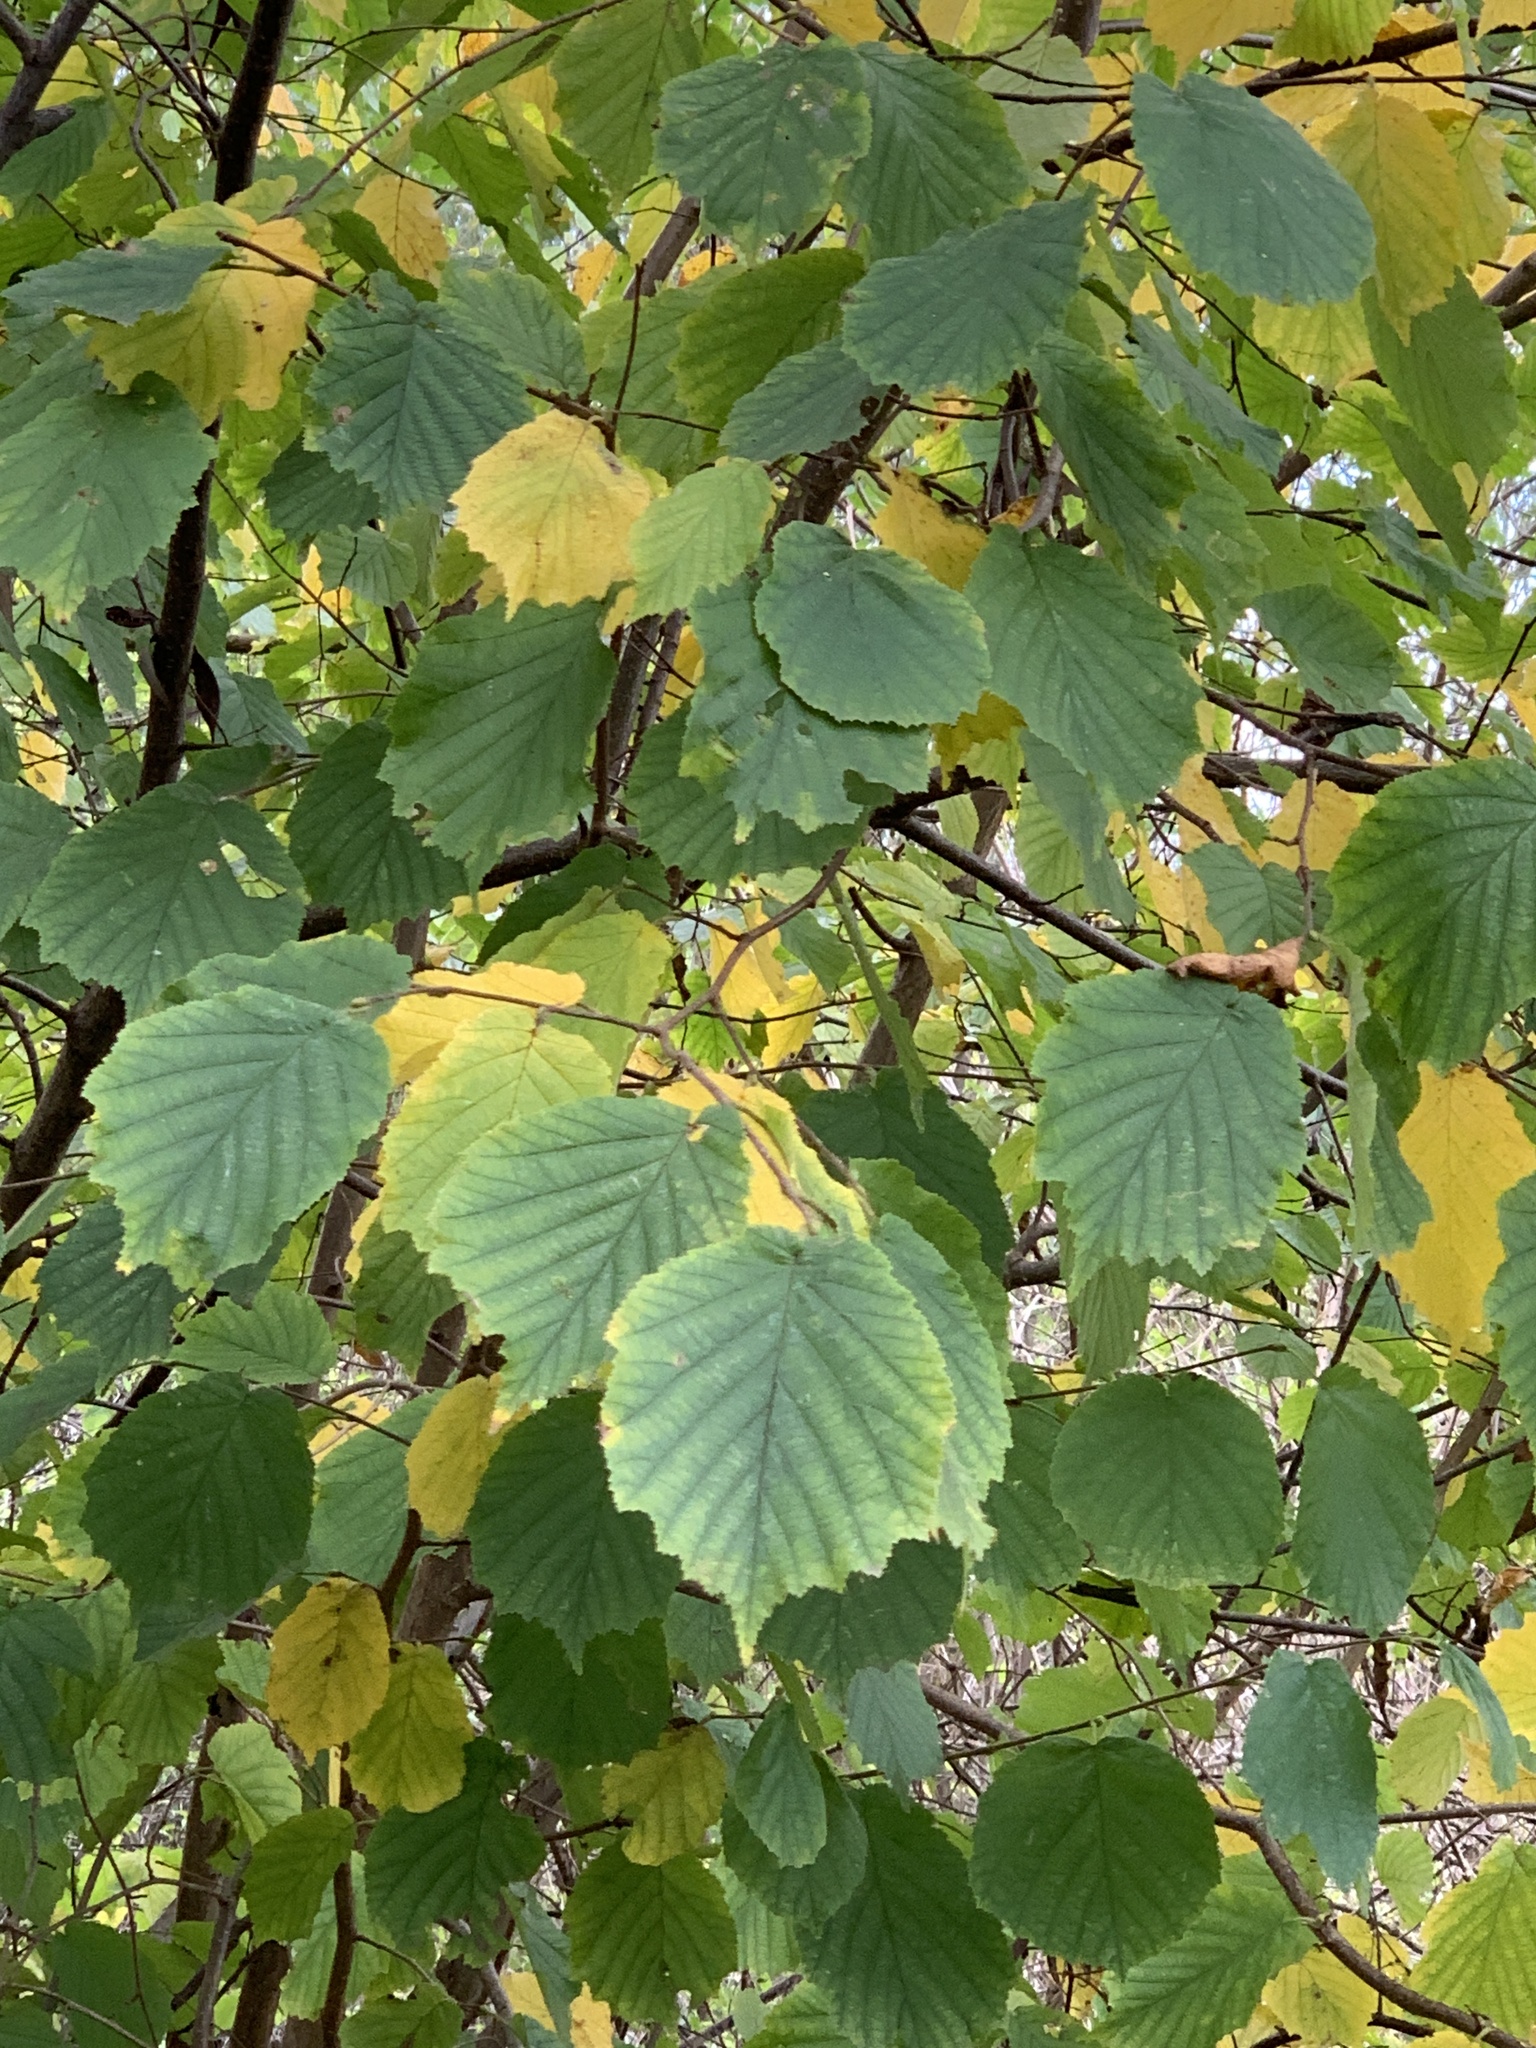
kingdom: Plantae
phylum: Tracheophyta
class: Magnoliopsida
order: Fagales
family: Betulaceae
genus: Corylus
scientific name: Corylus avellana
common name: European hazel
